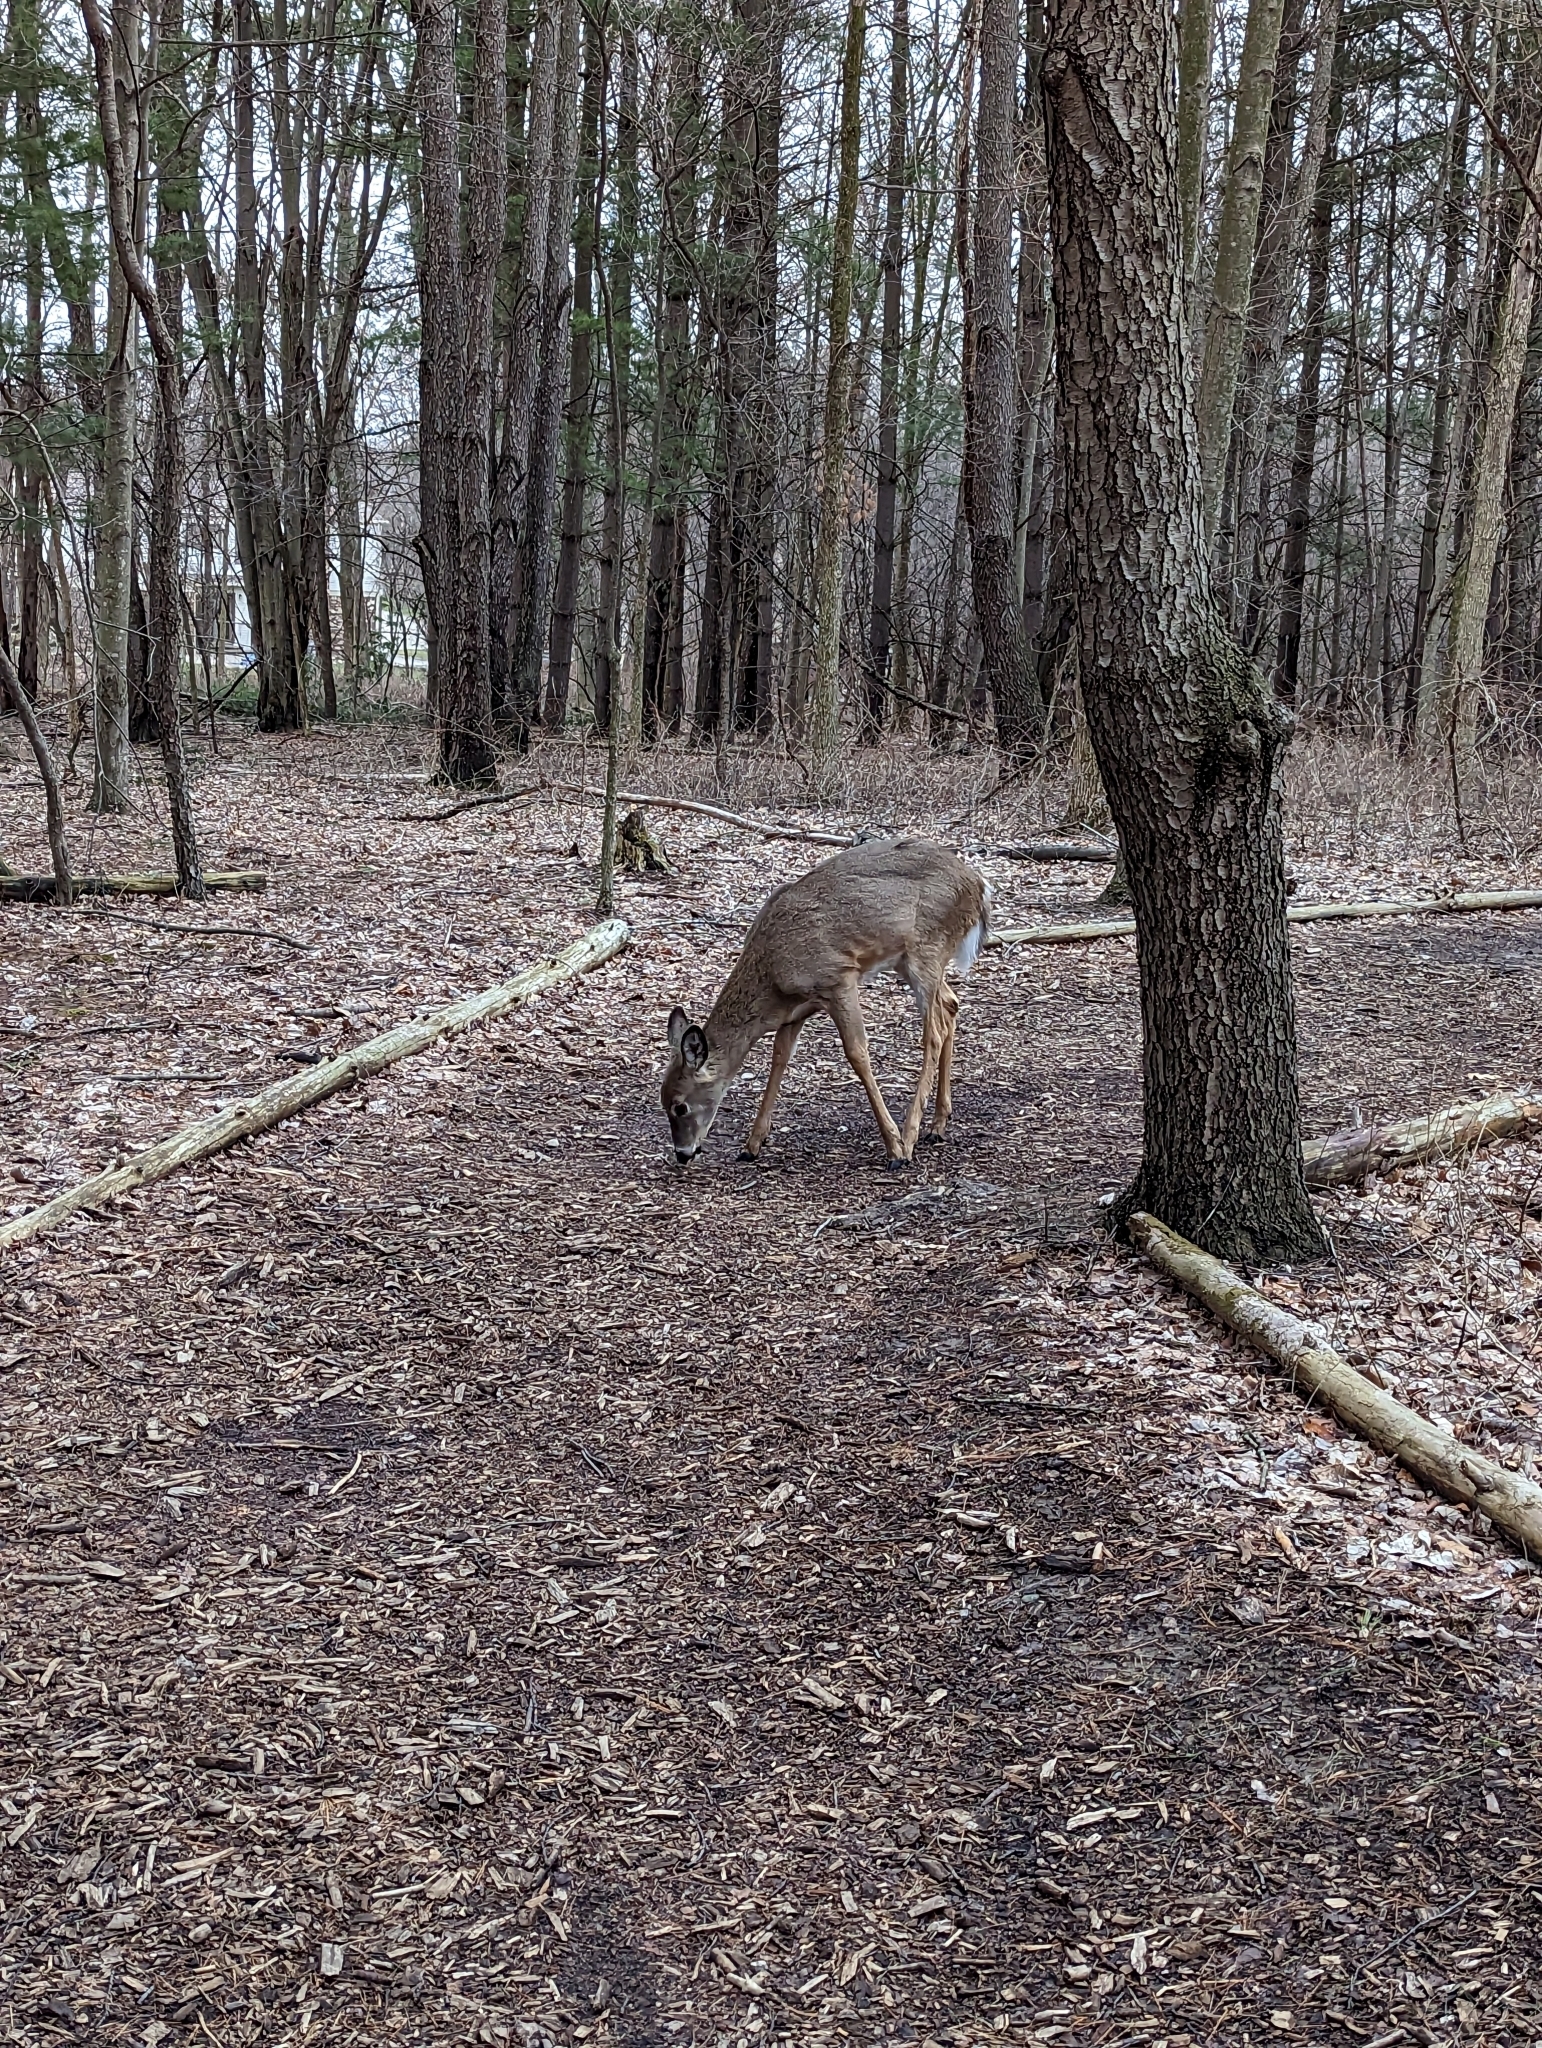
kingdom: Animalia
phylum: Chordata
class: Mammalia
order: Artiodactyla
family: Cervidae
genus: Odocoileus
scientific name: Odocoileus virginianus
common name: White-tailed deer
